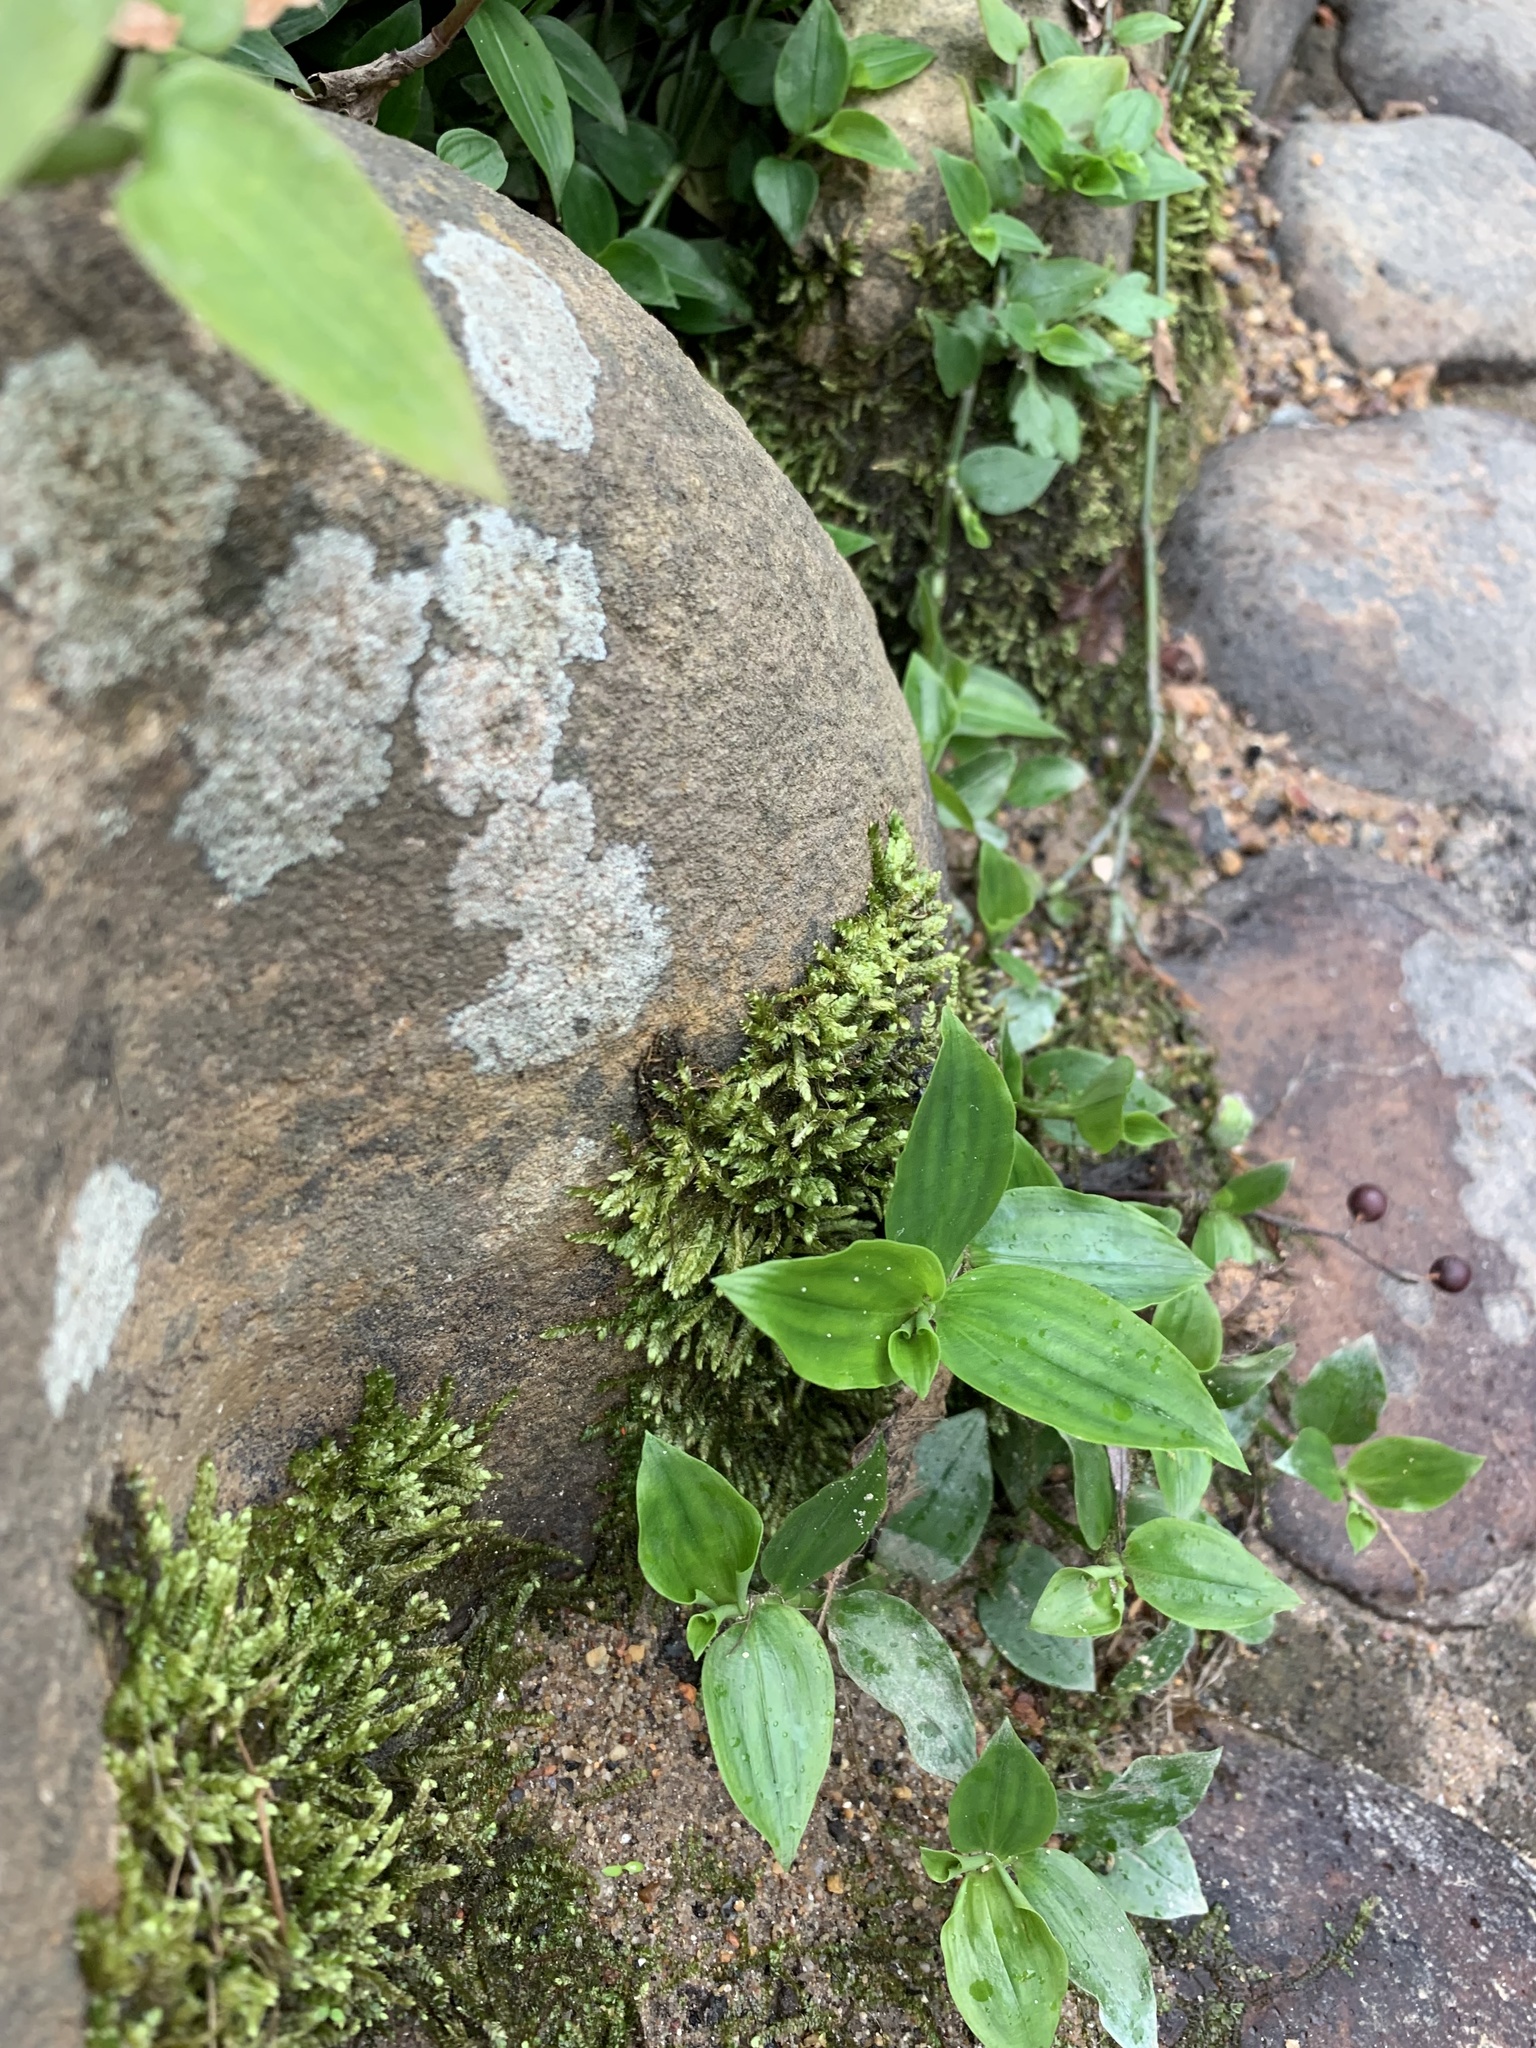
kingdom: Plantae
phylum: Tracheophyta
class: Liliopsida
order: Commelinales
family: Commelinaceae
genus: Tradescantia
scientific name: Tradescantia fluminensis
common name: Wandering-jew
